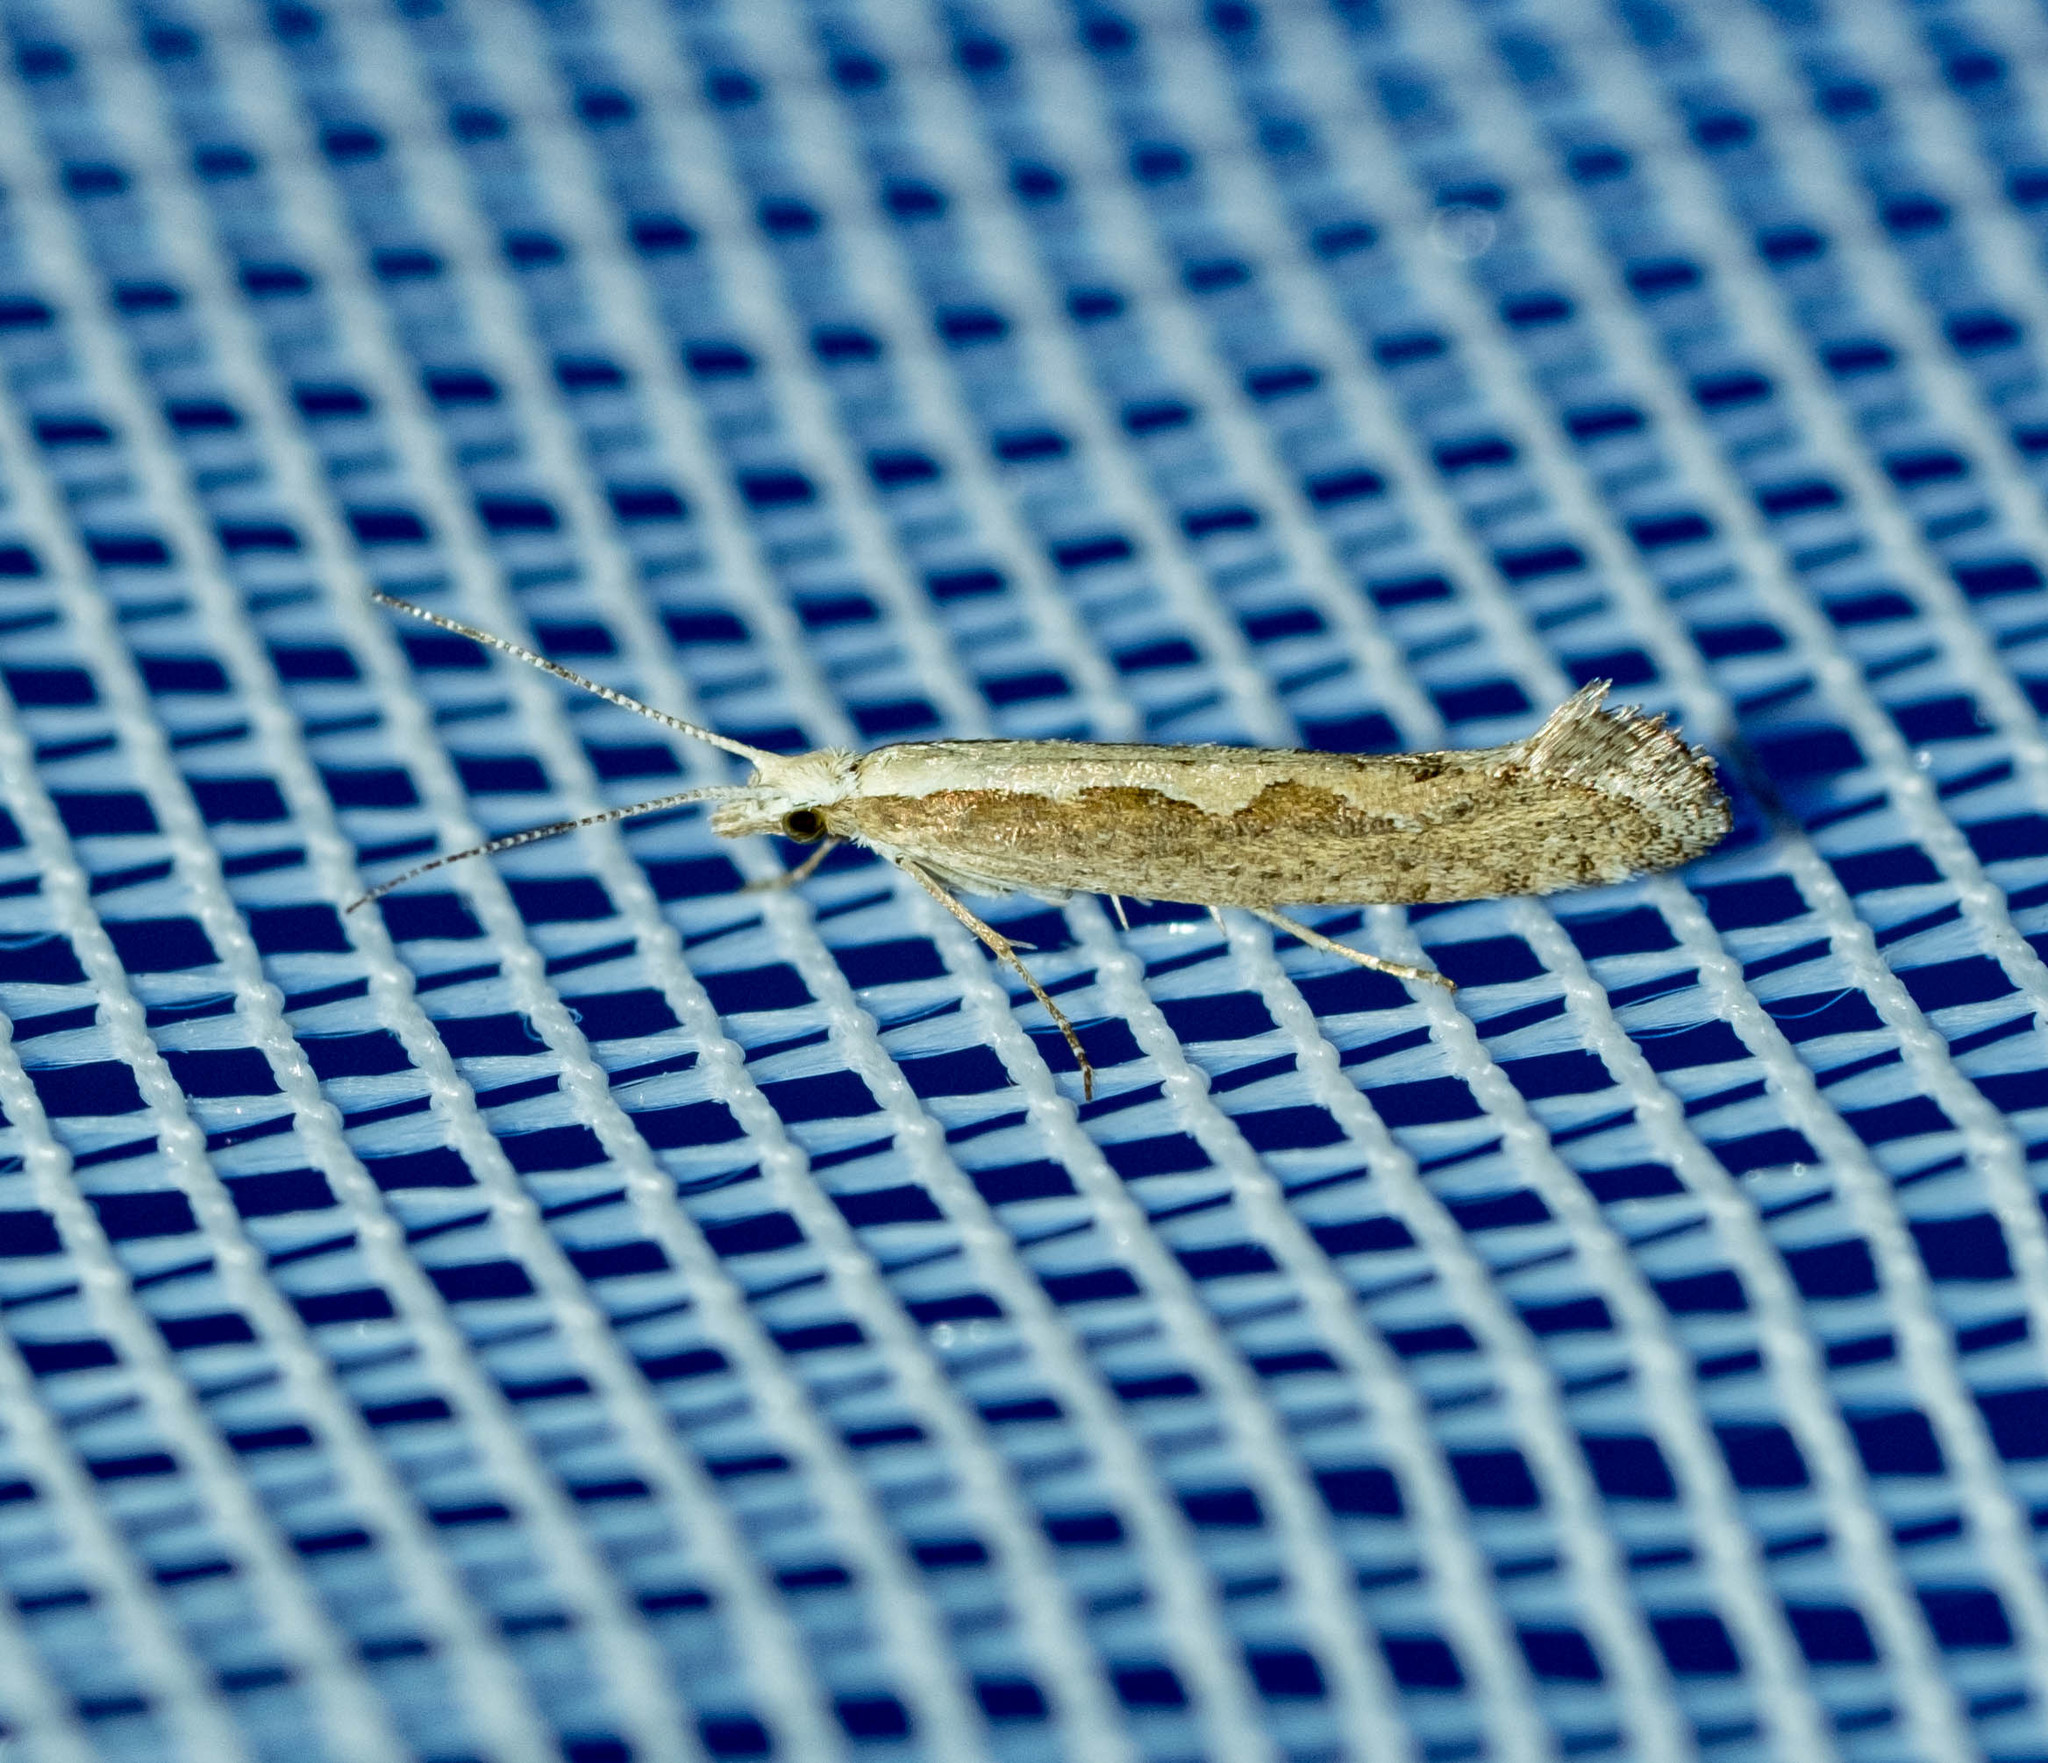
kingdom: Animalia
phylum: Arthropoda
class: Insecta
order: Lepidoptera
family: Plutellidae
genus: Plutella
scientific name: Plutella xylostella
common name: Diamond-back moth
